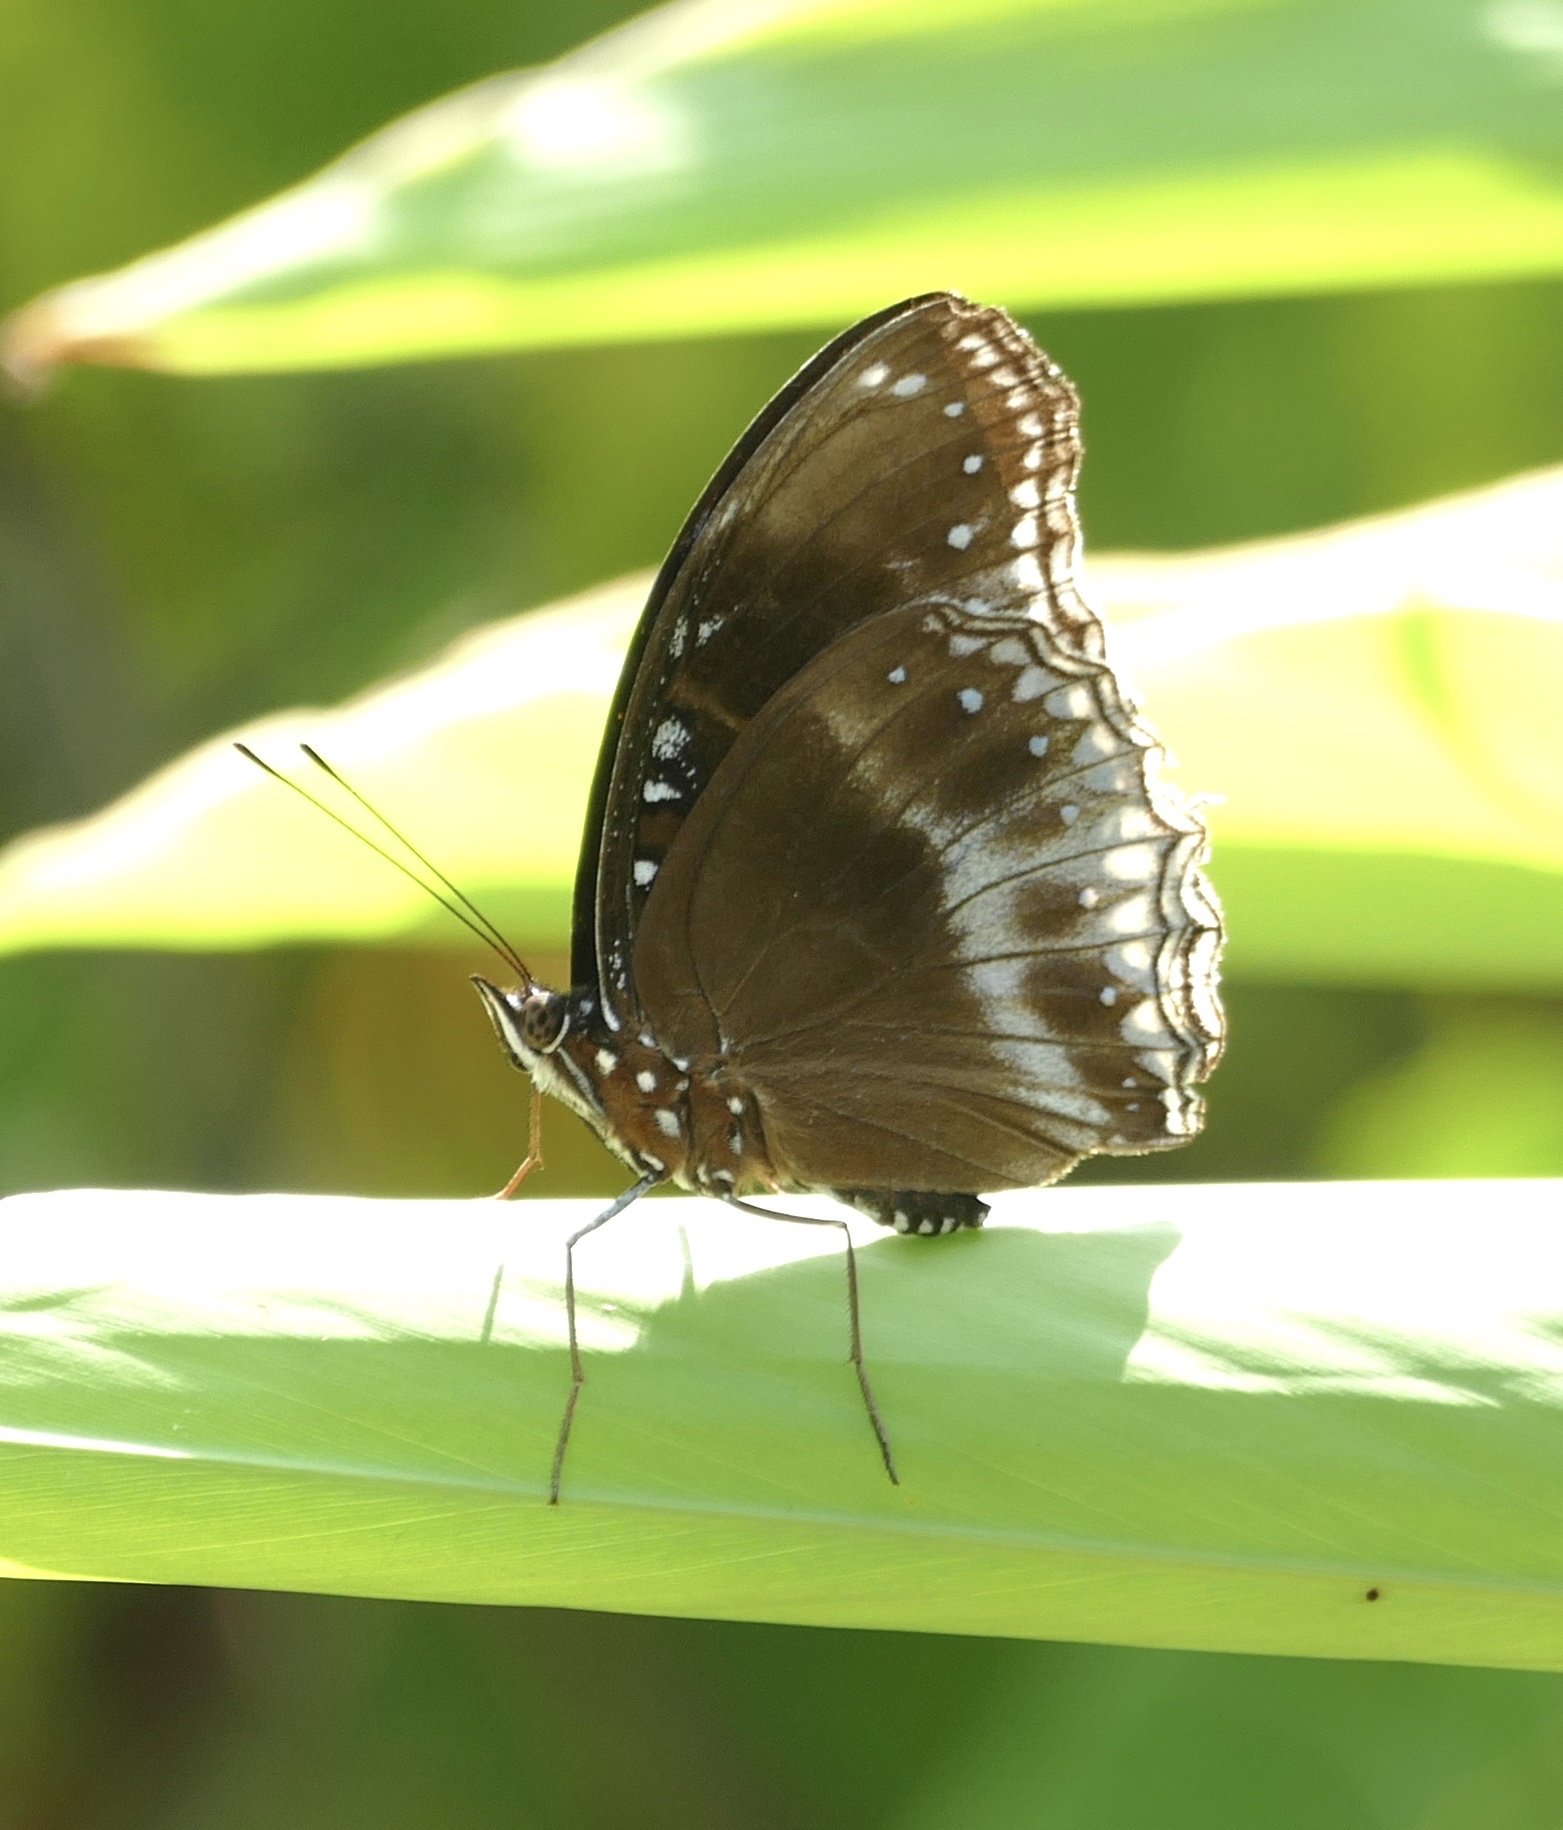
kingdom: Animalia
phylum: Arthropoda
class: Insecta
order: Lepidoptera
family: Nymphalidae
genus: Hypolimnas
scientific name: Hypolimnas alimena
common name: Blue-banded eggfly
